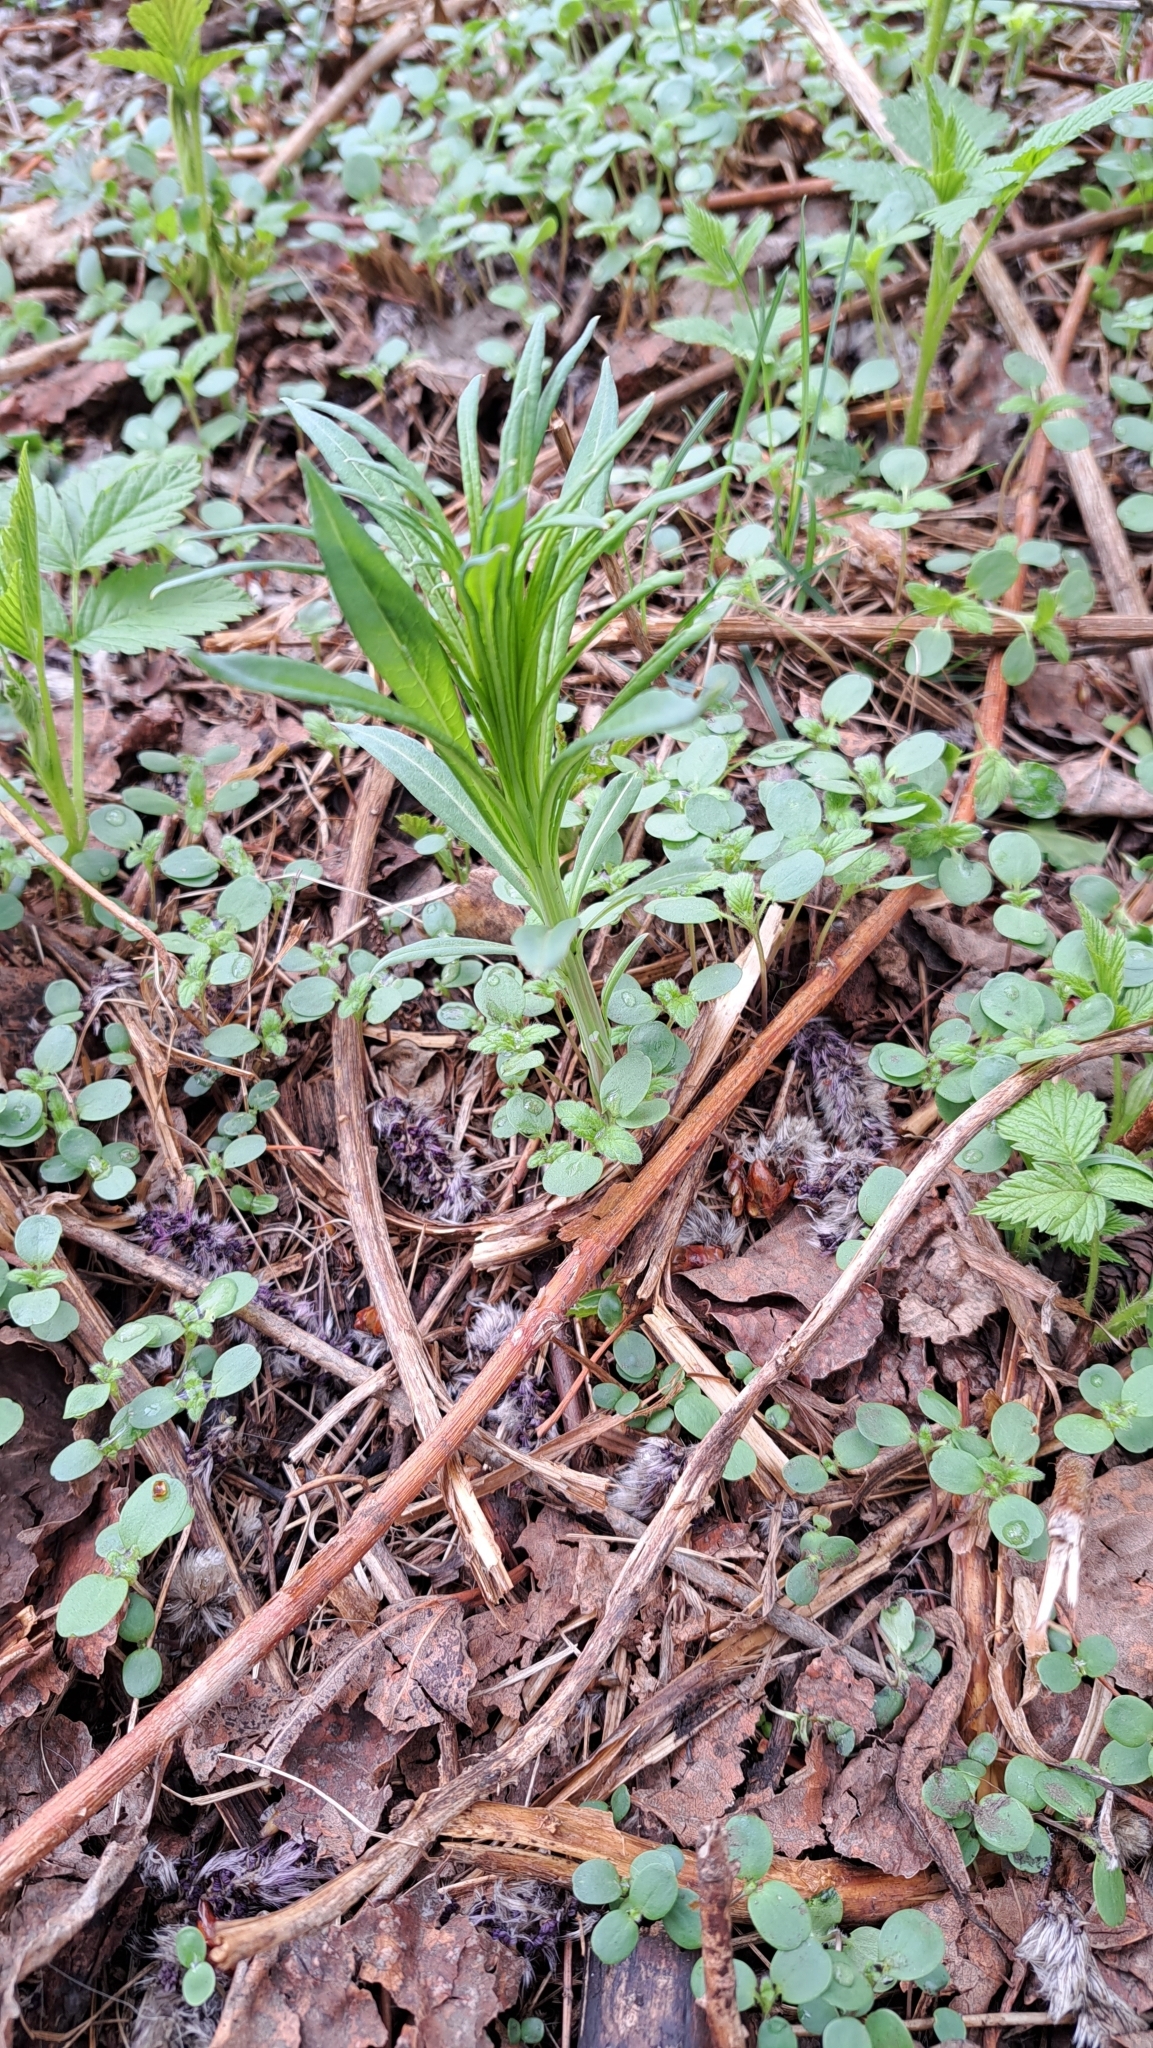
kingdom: Plantae
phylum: Tracheophyta
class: Magnoliopsida
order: Myrtales
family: Onagraceae
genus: Chamaenerion
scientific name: Chamaenerion angustifolium
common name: Fireweed
